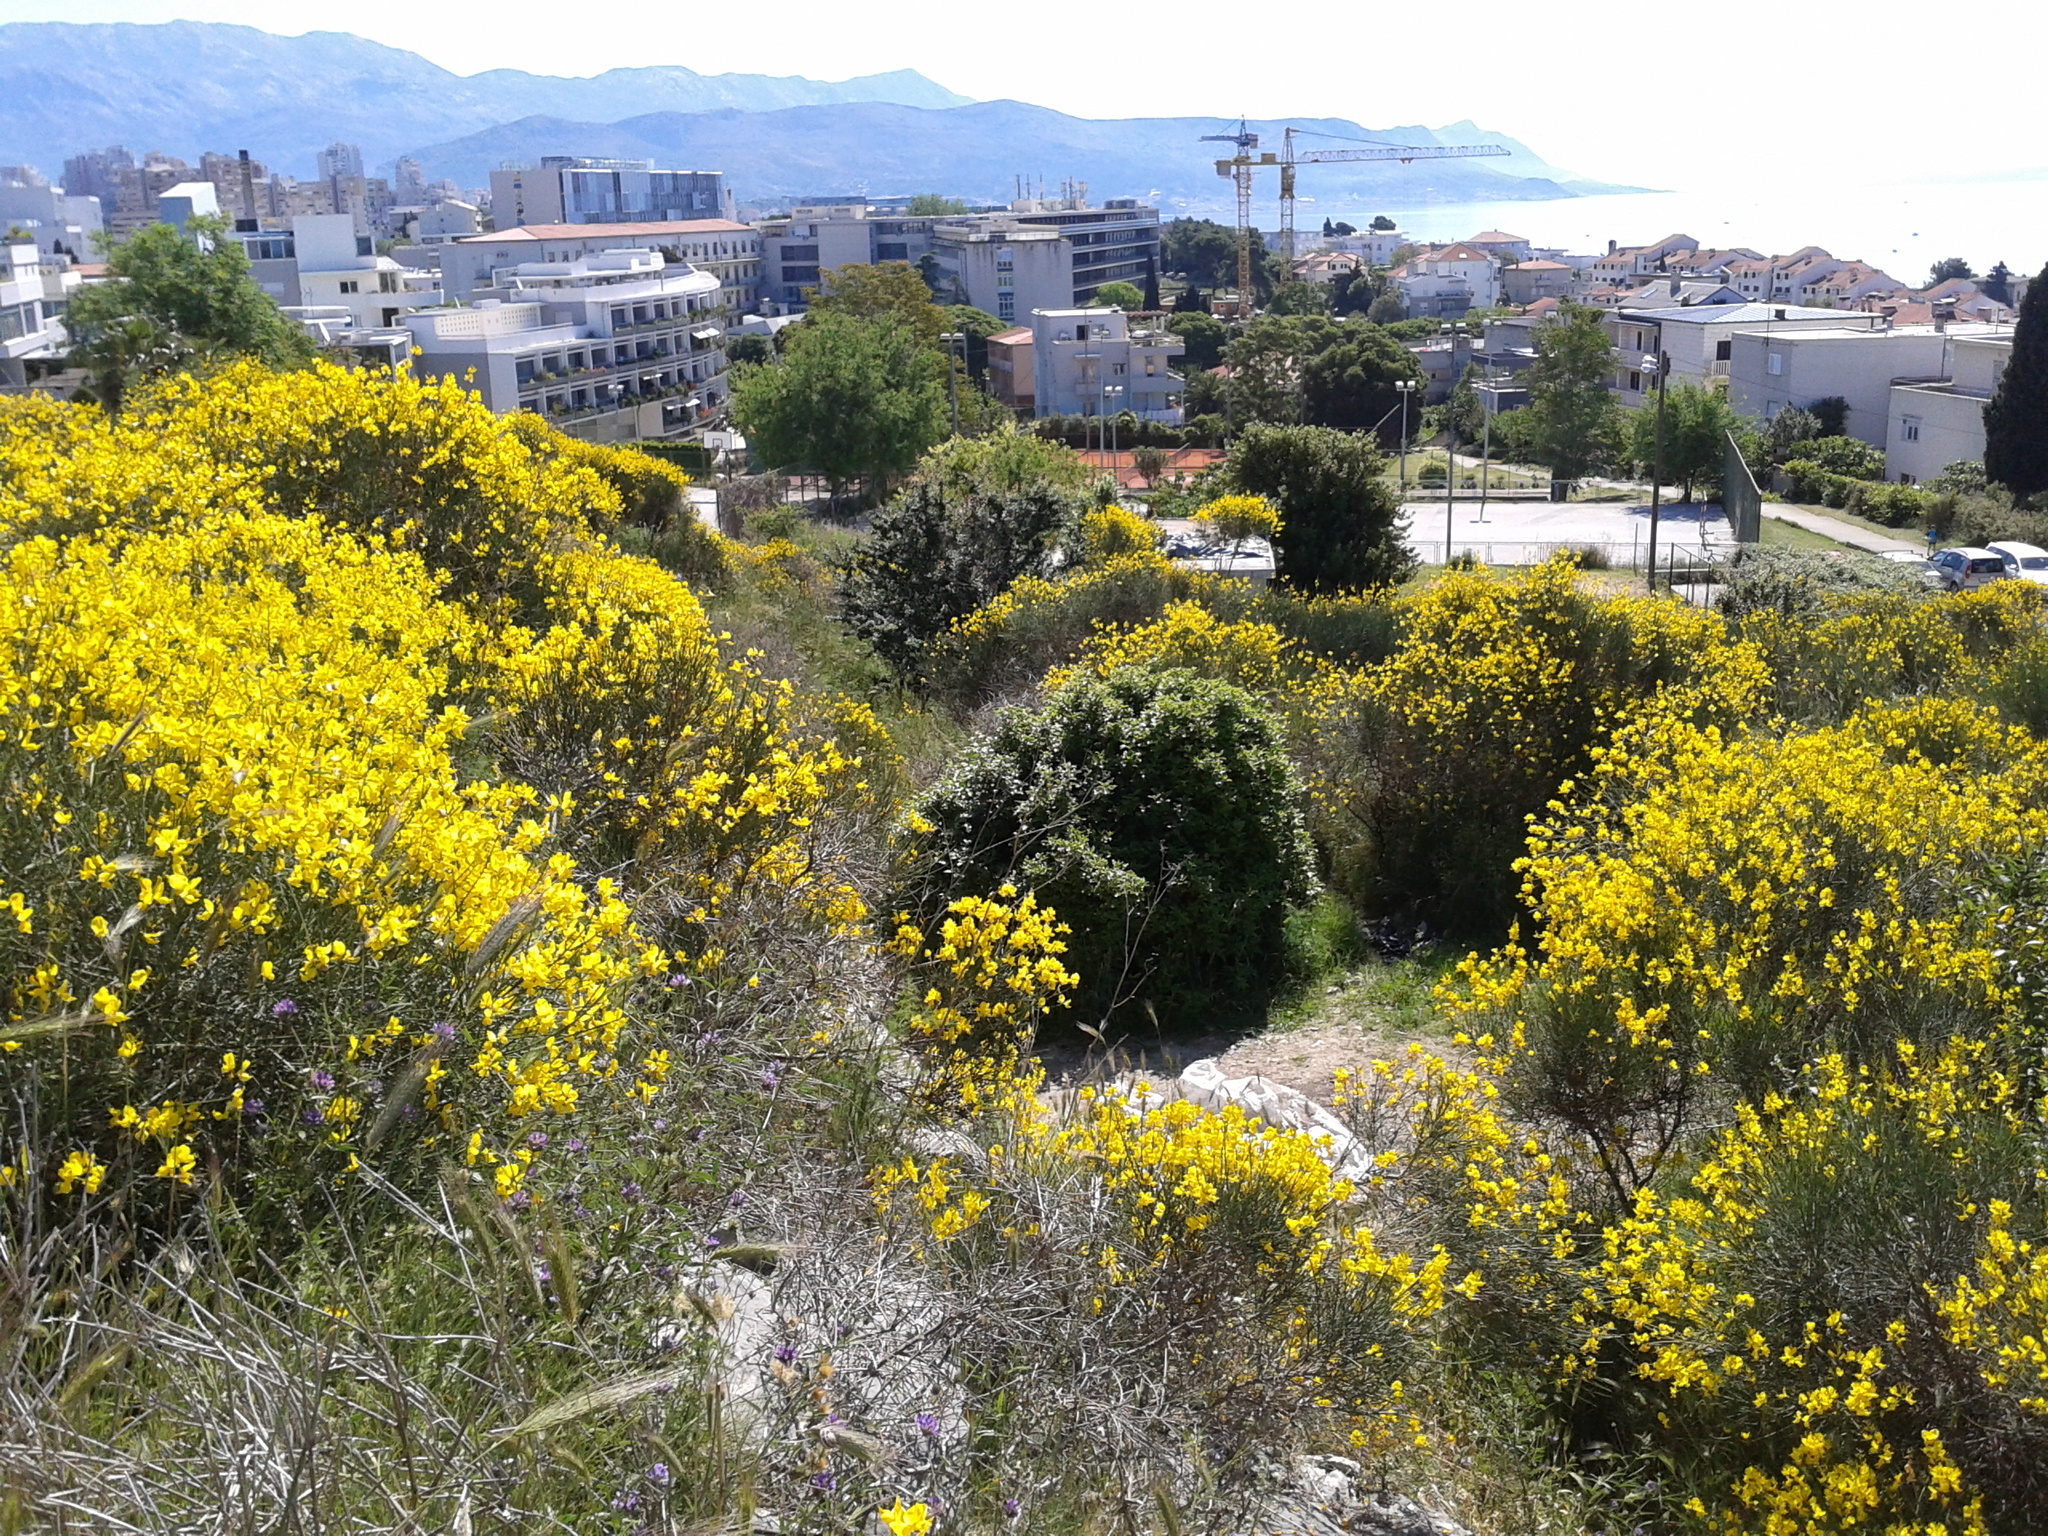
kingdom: Plantae
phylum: Tracheophyta
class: Magnoliopsida
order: Fabales
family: Fabaceae
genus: Spartium
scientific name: Spartium junceum
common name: Spanish broom
